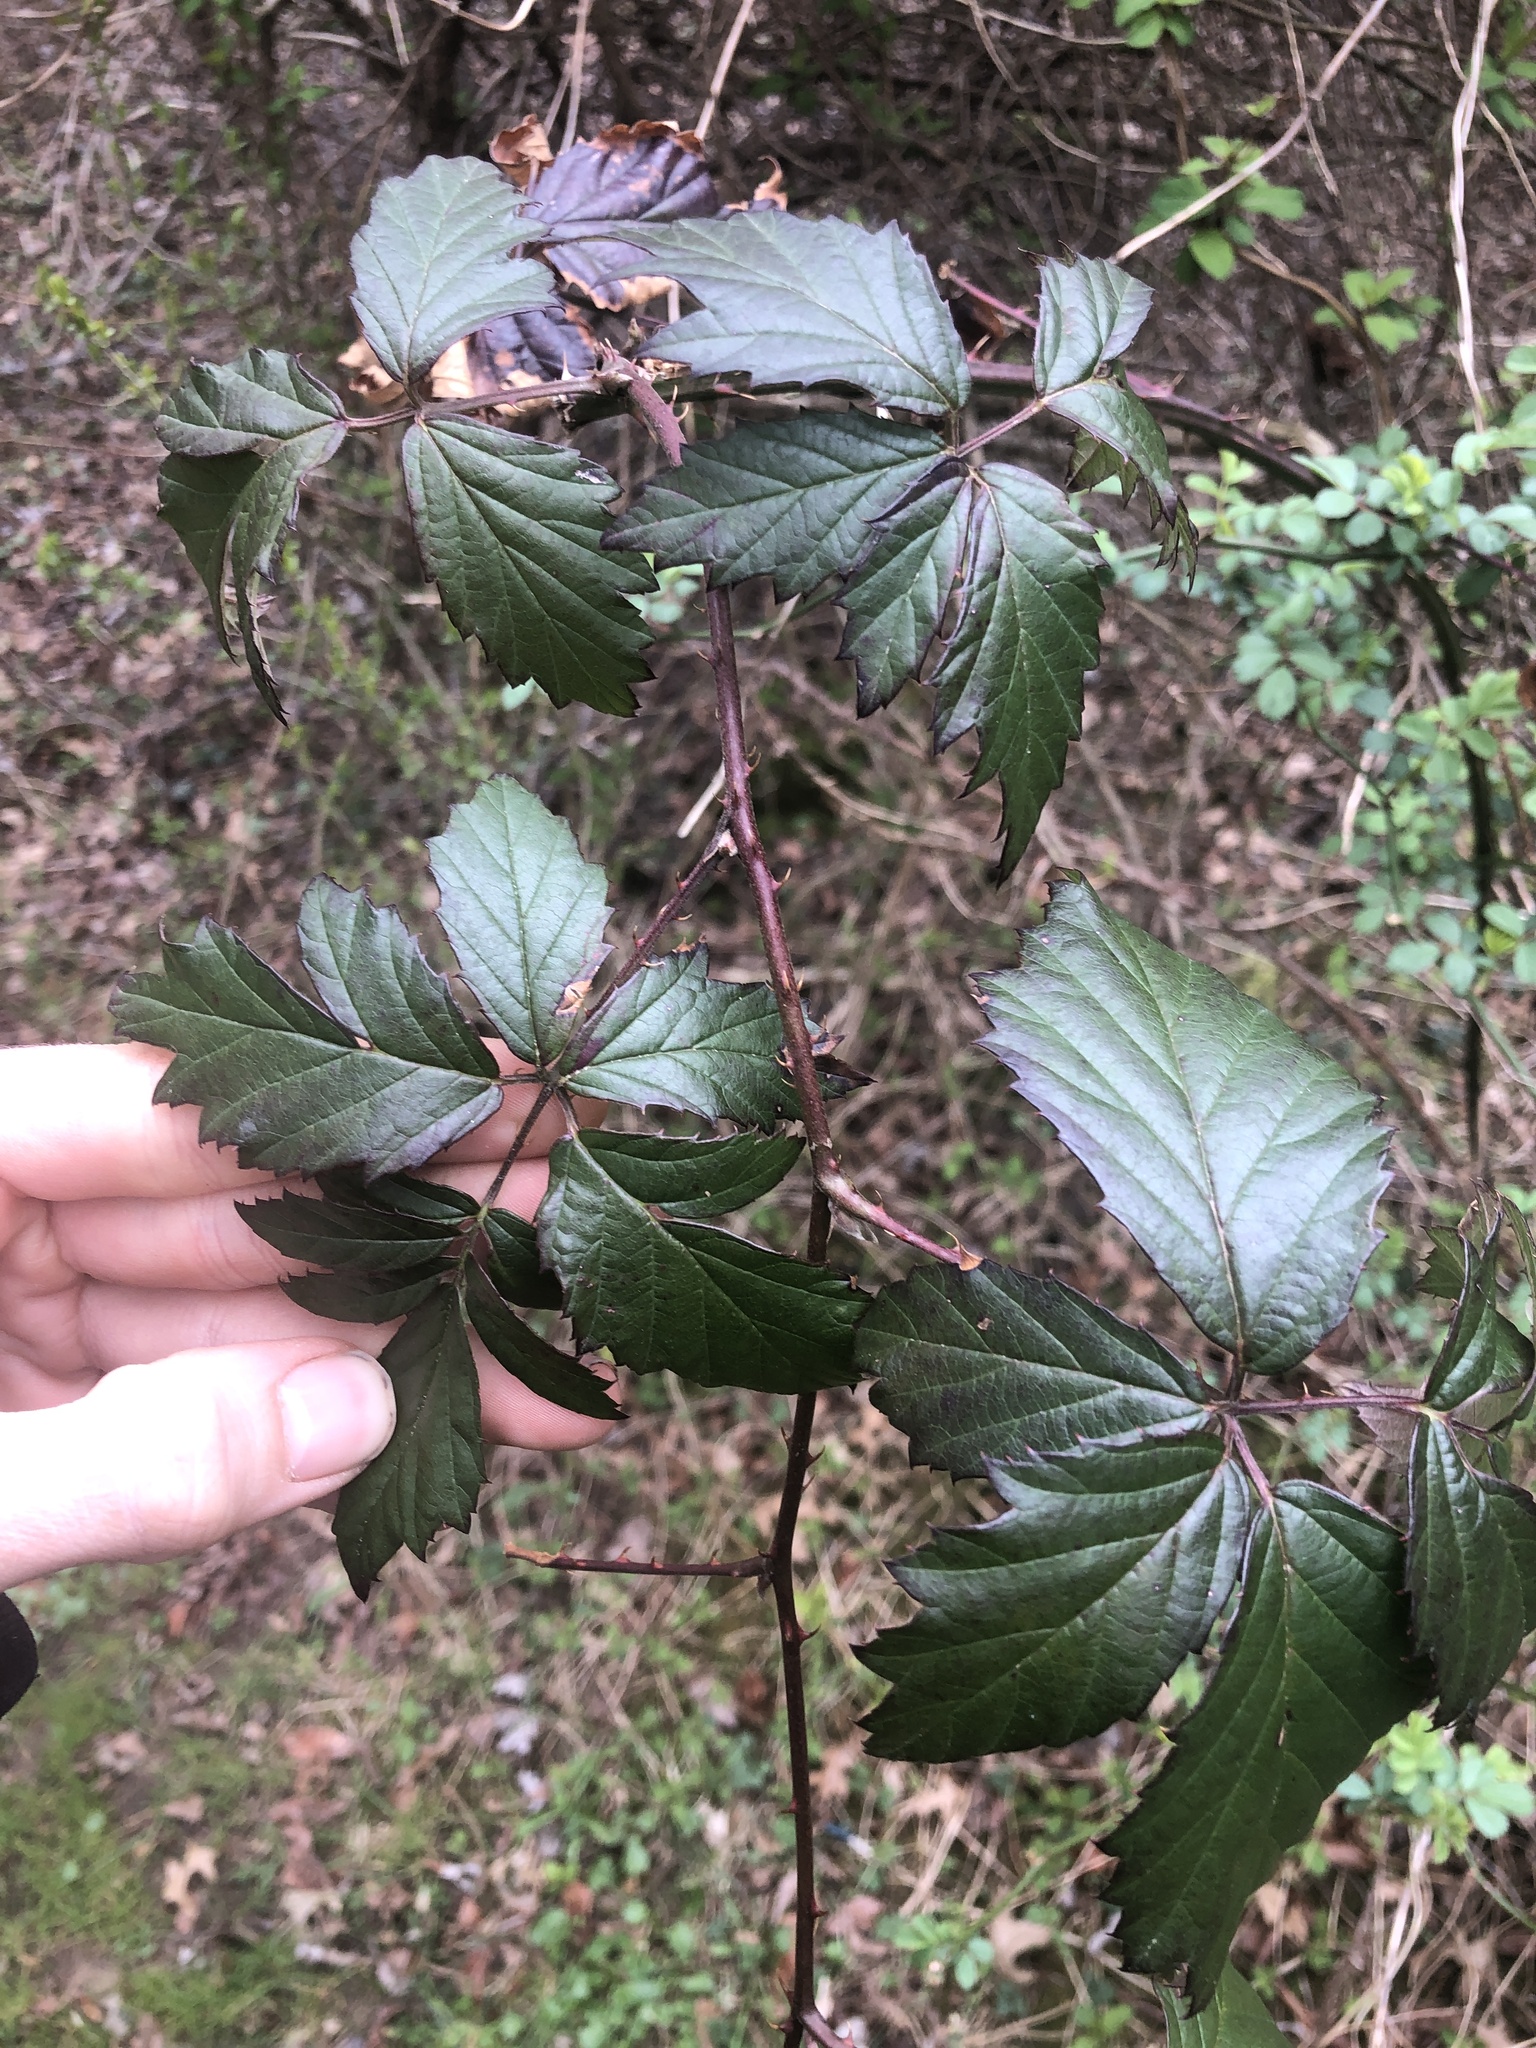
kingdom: Plantae
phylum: Tracheophyta
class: Magnoliopsida
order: Rosales
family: Rosaceae
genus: Rubus
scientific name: Rubus laciniatus
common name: Evergreen blackberry
